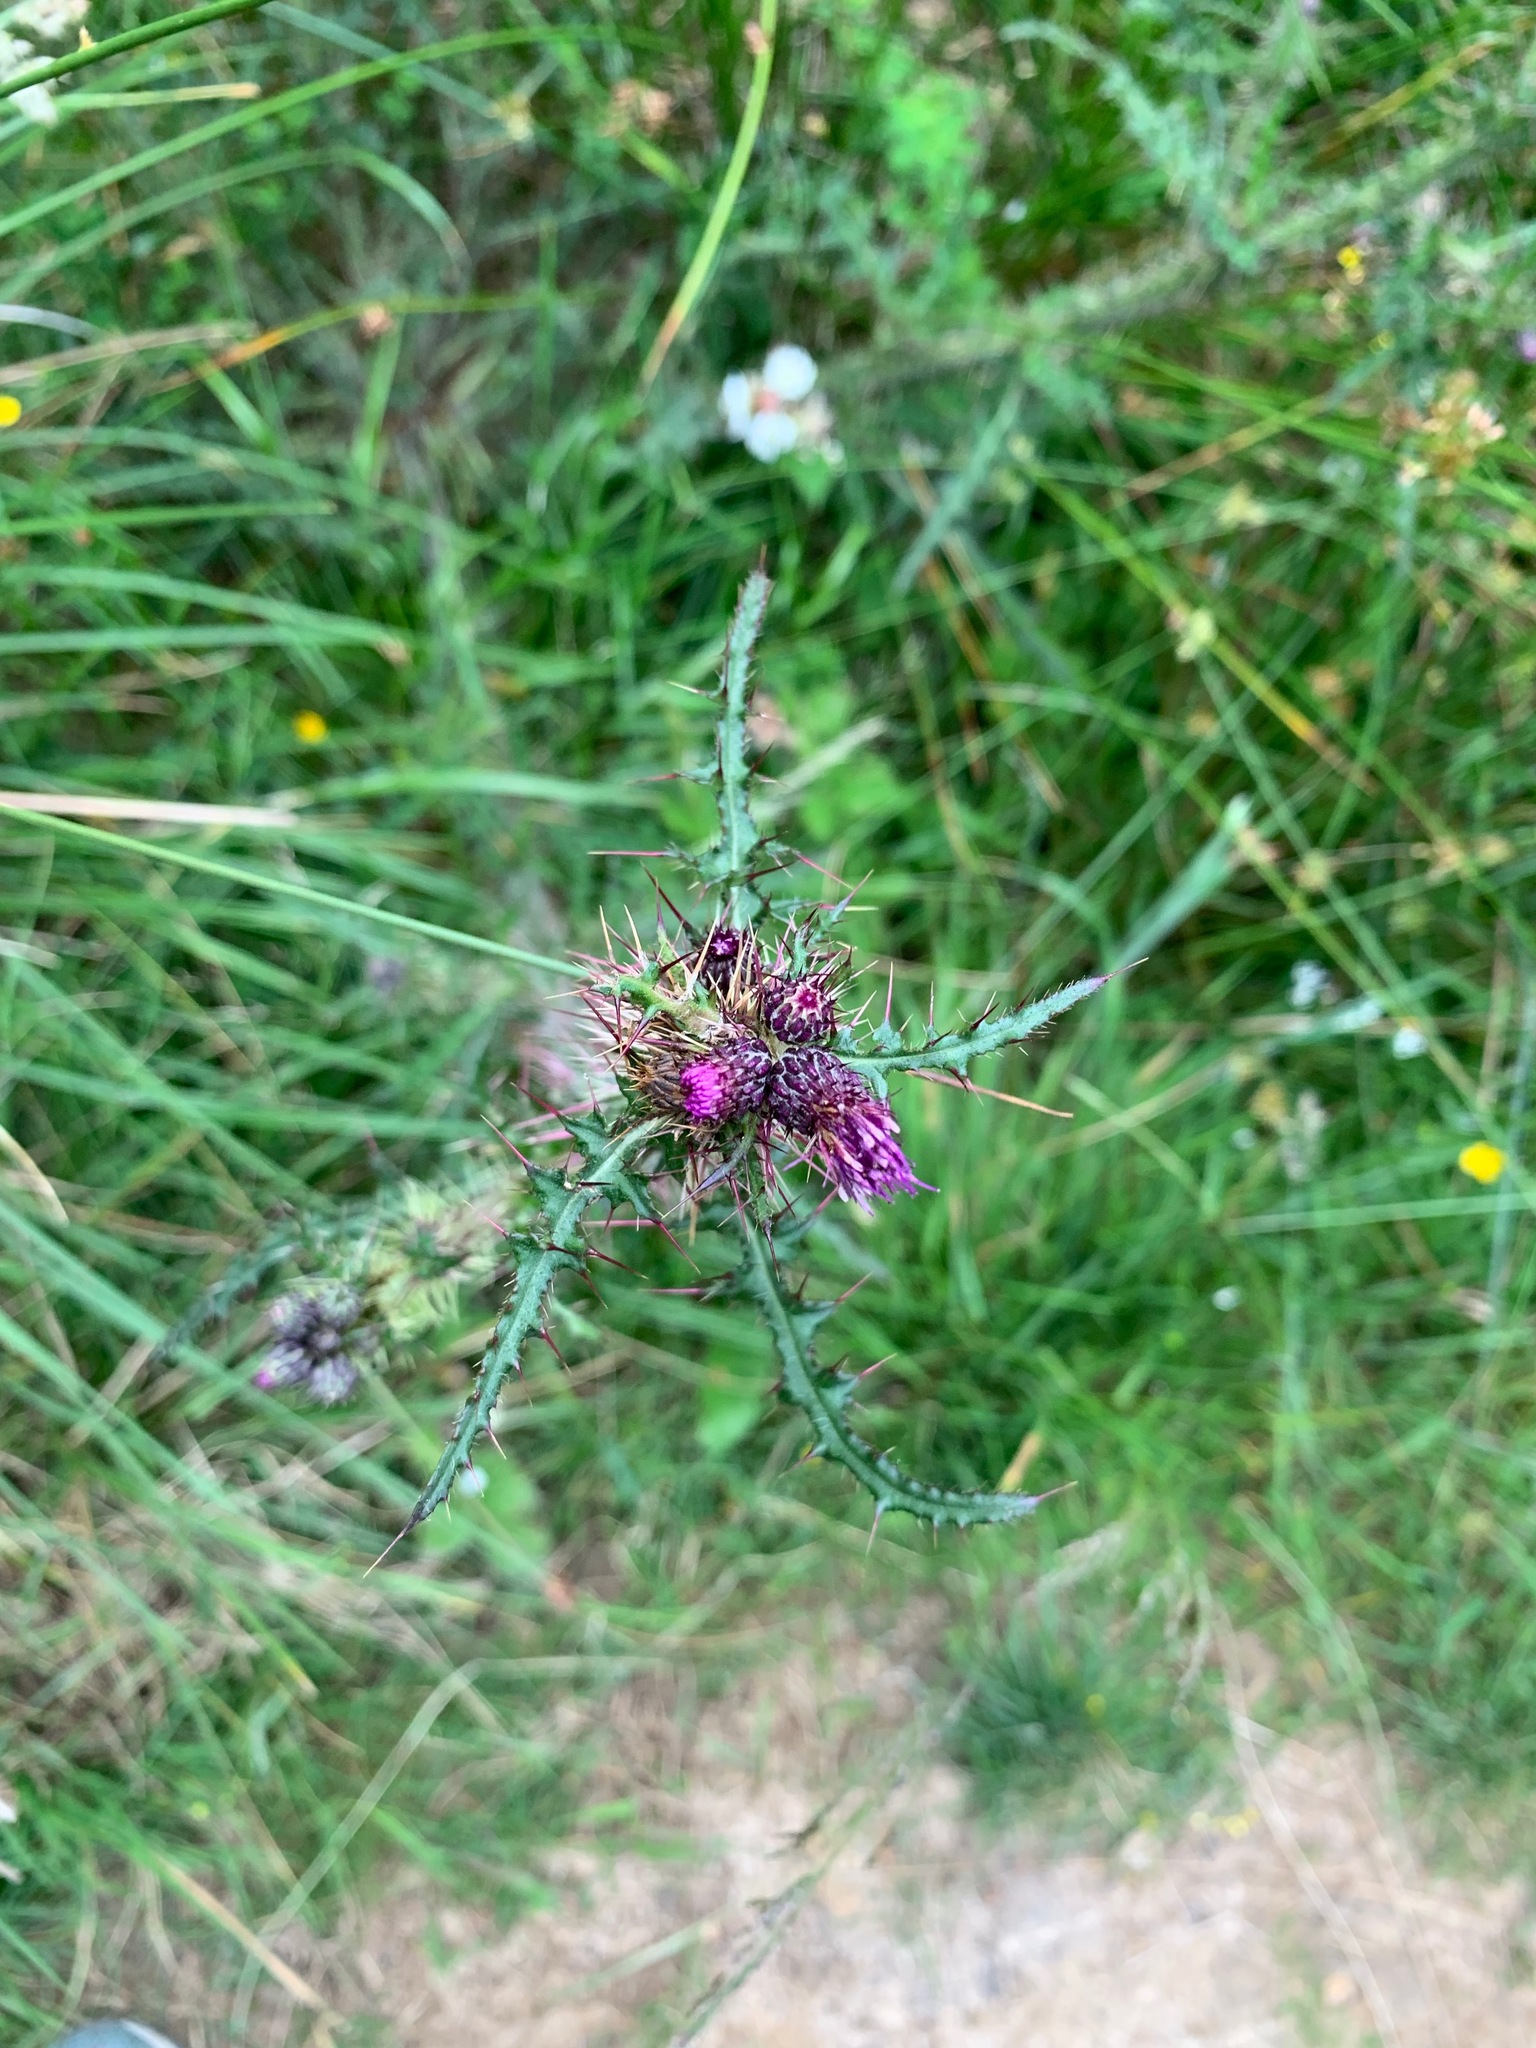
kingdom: Plantae
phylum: Tracheophyta
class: Magnoliopsida
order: Asterales
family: Asteraceae
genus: Cirsium
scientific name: Cirsium palustre
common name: Marsh thistle
